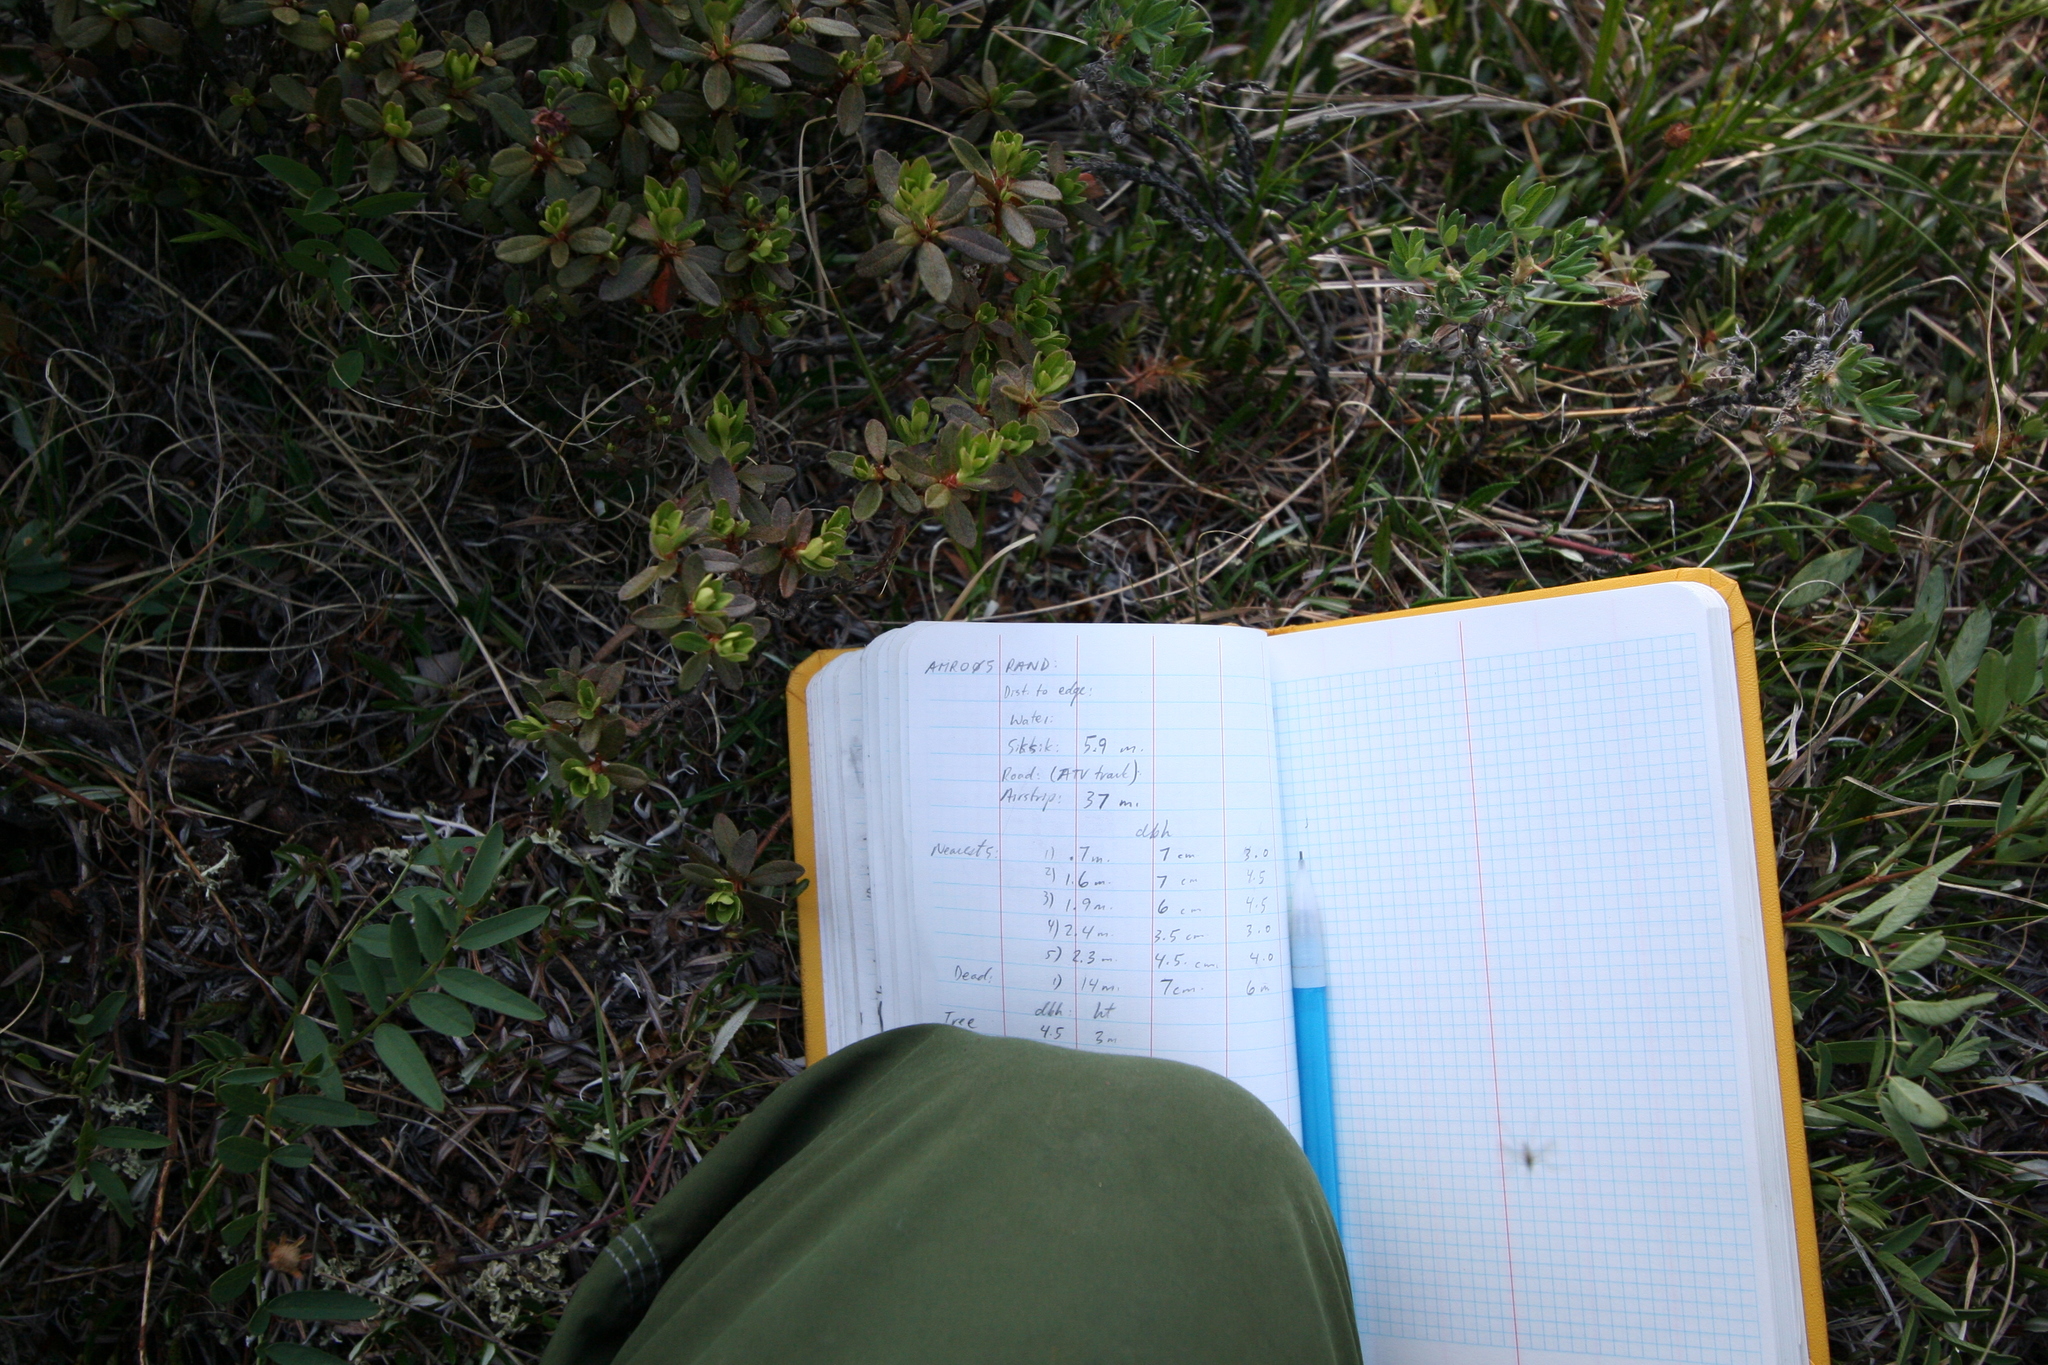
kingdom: Plantae
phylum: Tracheophyta
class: Magnoliopsida
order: Ericales
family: Ericaceae
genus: Rhododendron
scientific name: Rhododendron lapponicum
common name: Lapland rhododendron
